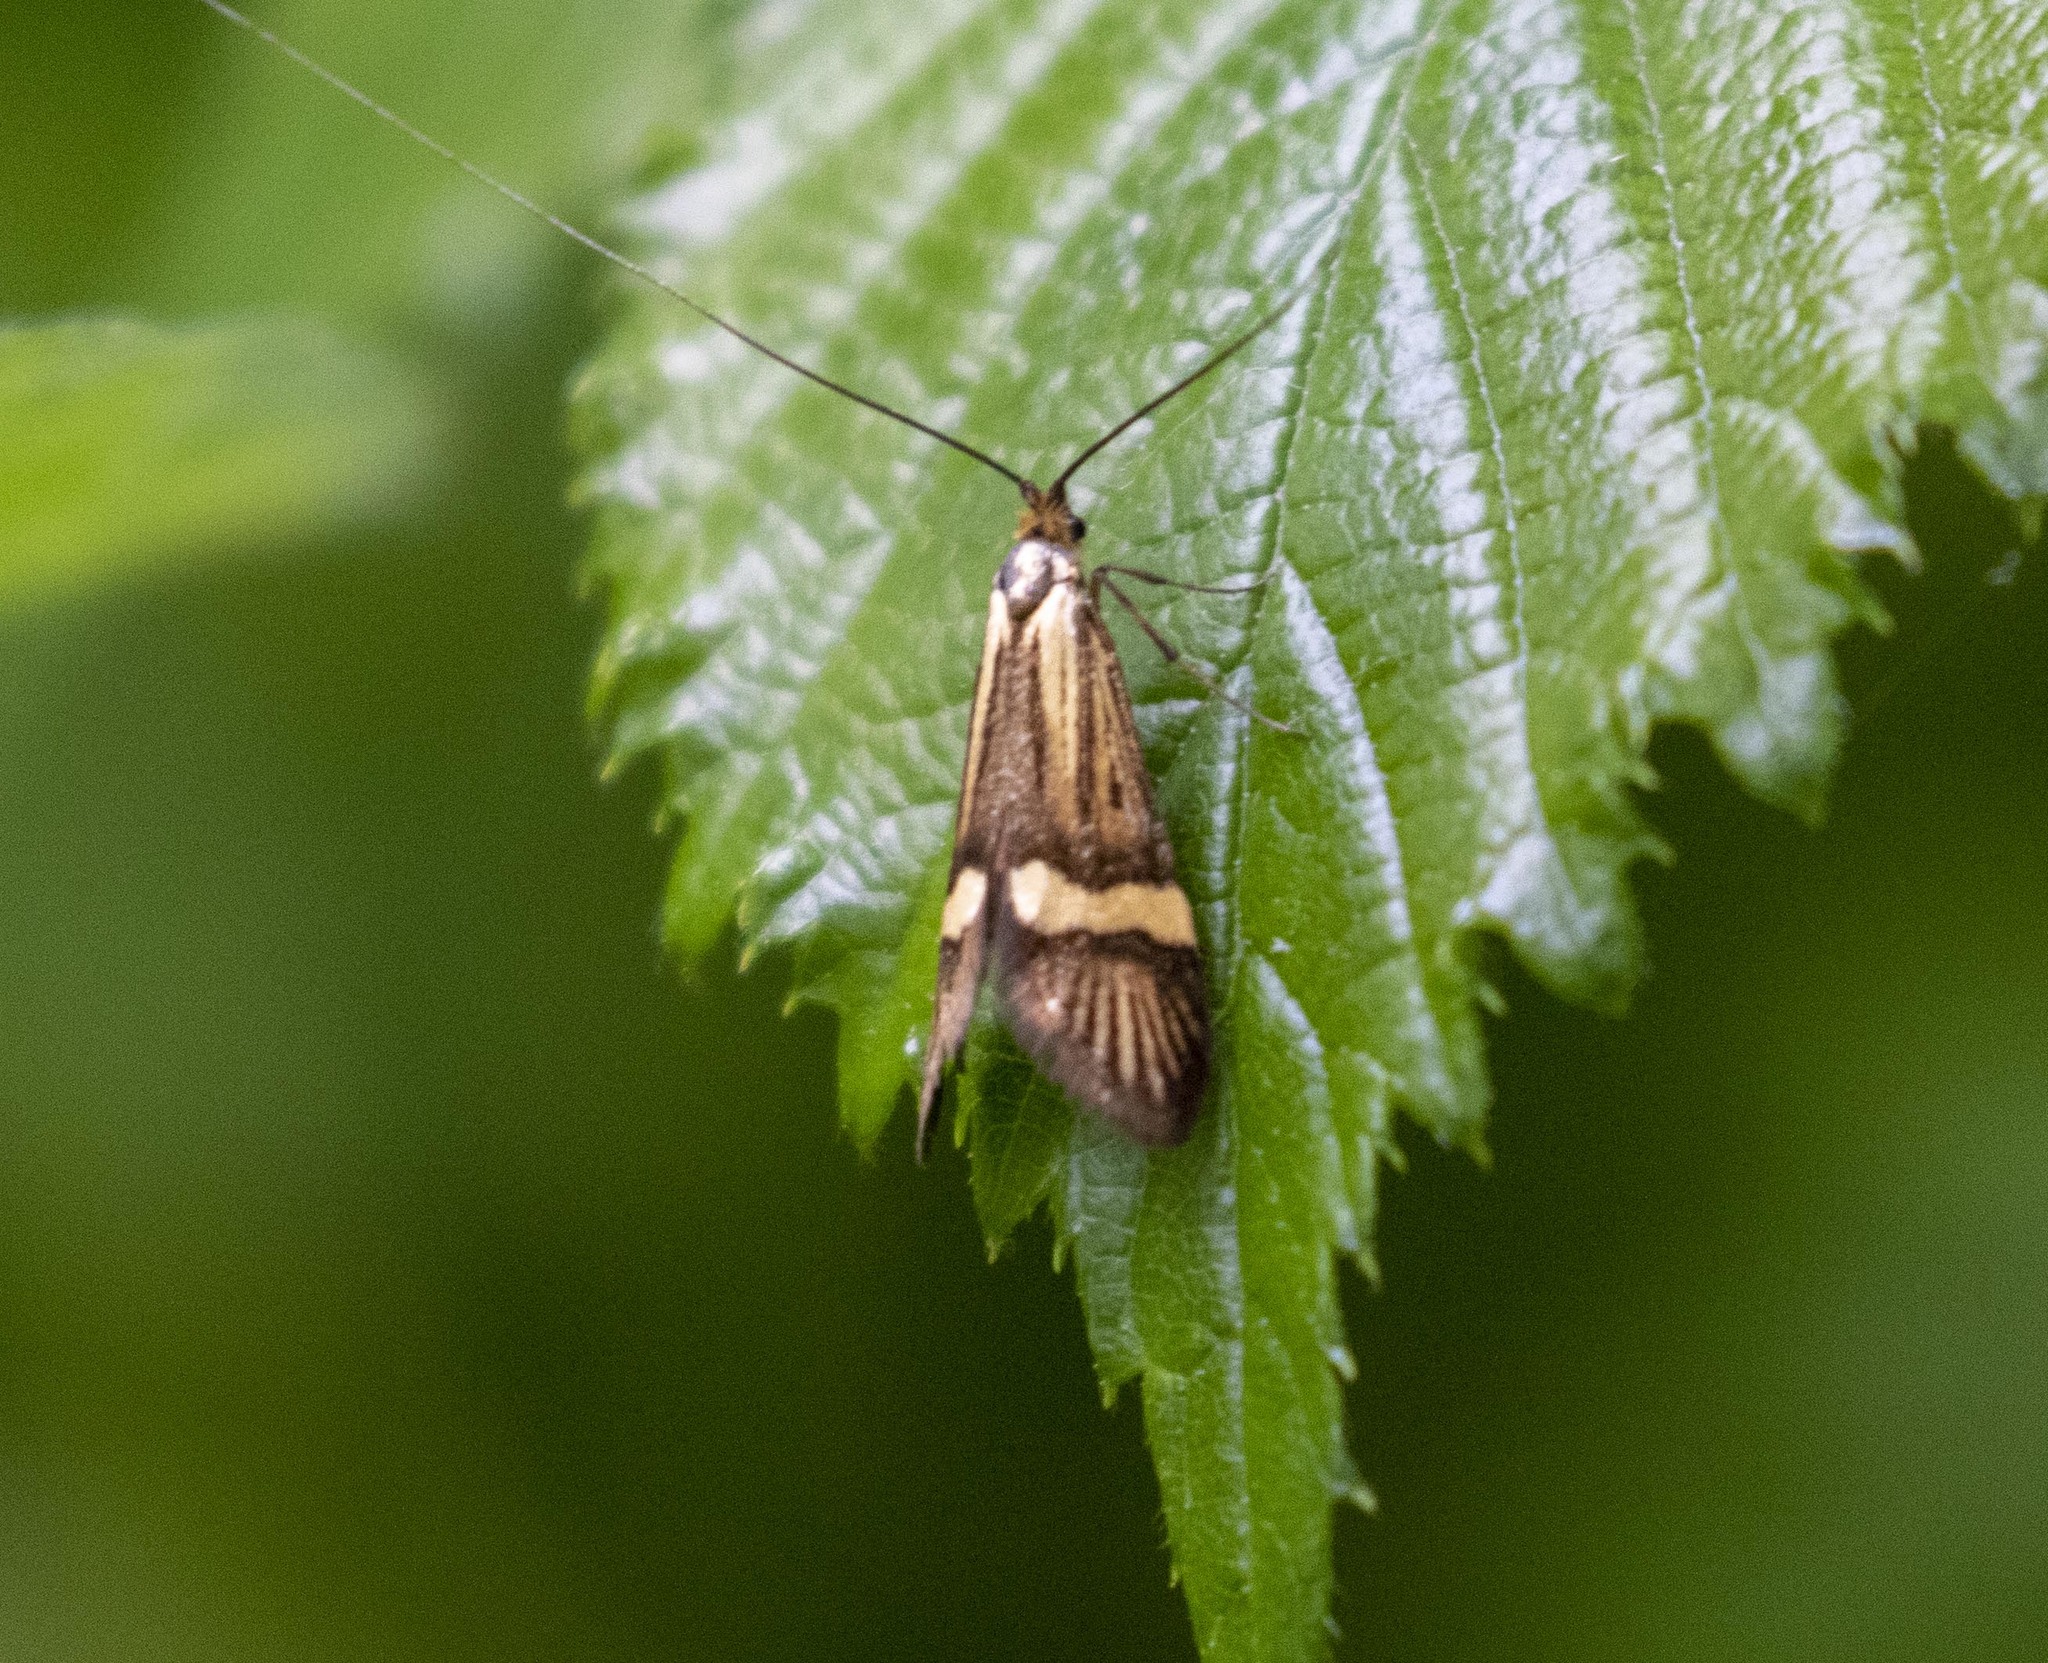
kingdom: Animalia
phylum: Arthropoda
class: Insecta
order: Lepidoptera
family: Adelidae
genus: Nemophora
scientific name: Nemophora degeerella
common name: Yellow-barred long-horn
